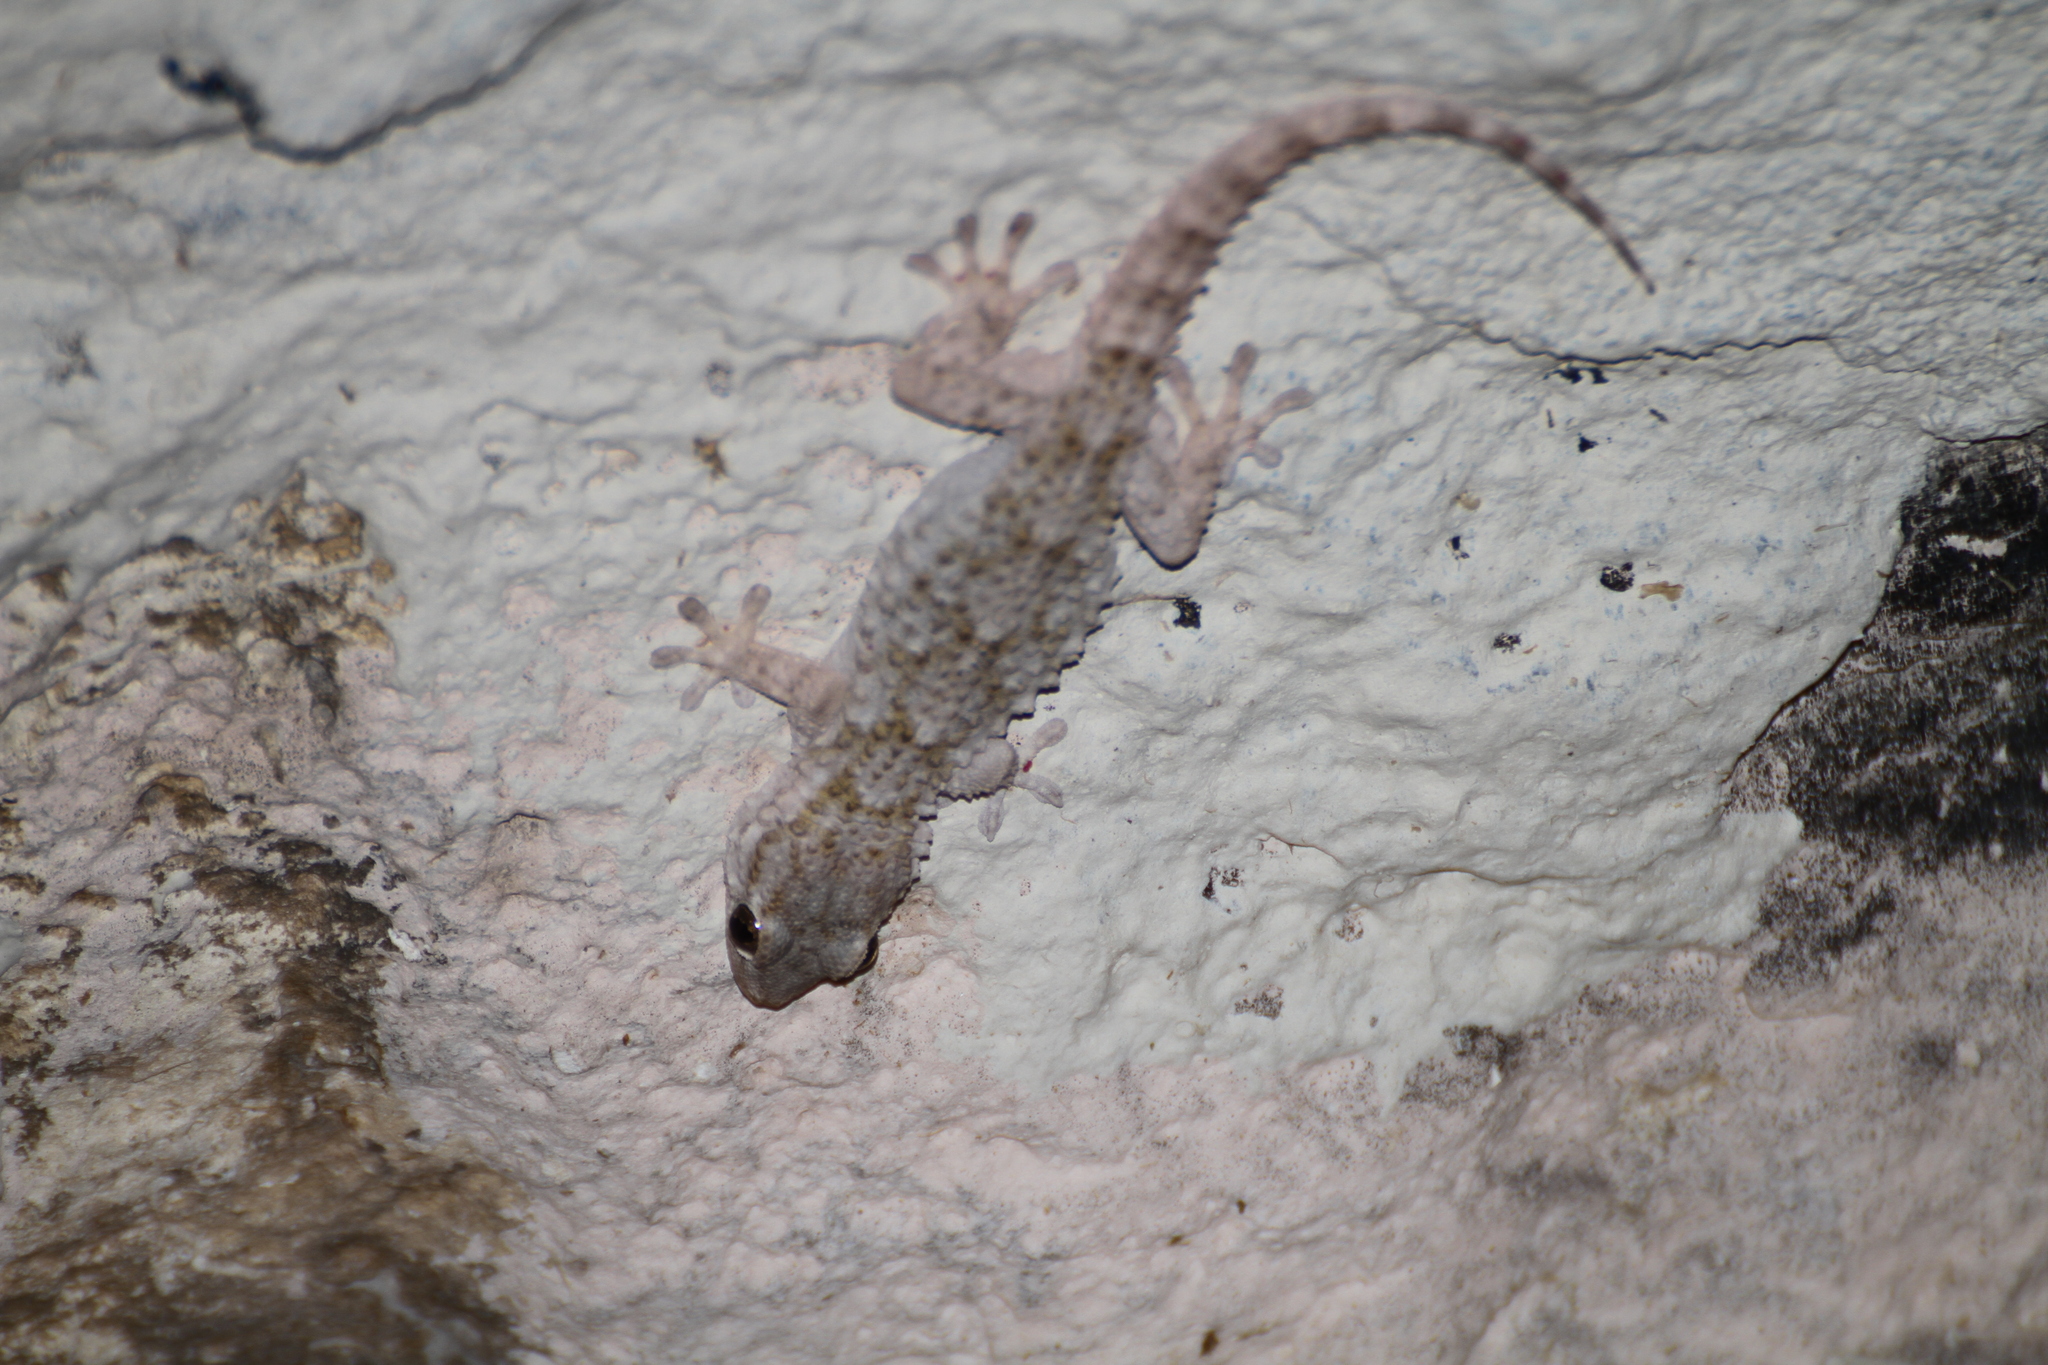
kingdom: Animalia
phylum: Chordata
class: Squamata
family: Phyllodactylidae
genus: Tarentola
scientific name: Tarentola mauritanica
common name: Moorish gecko
